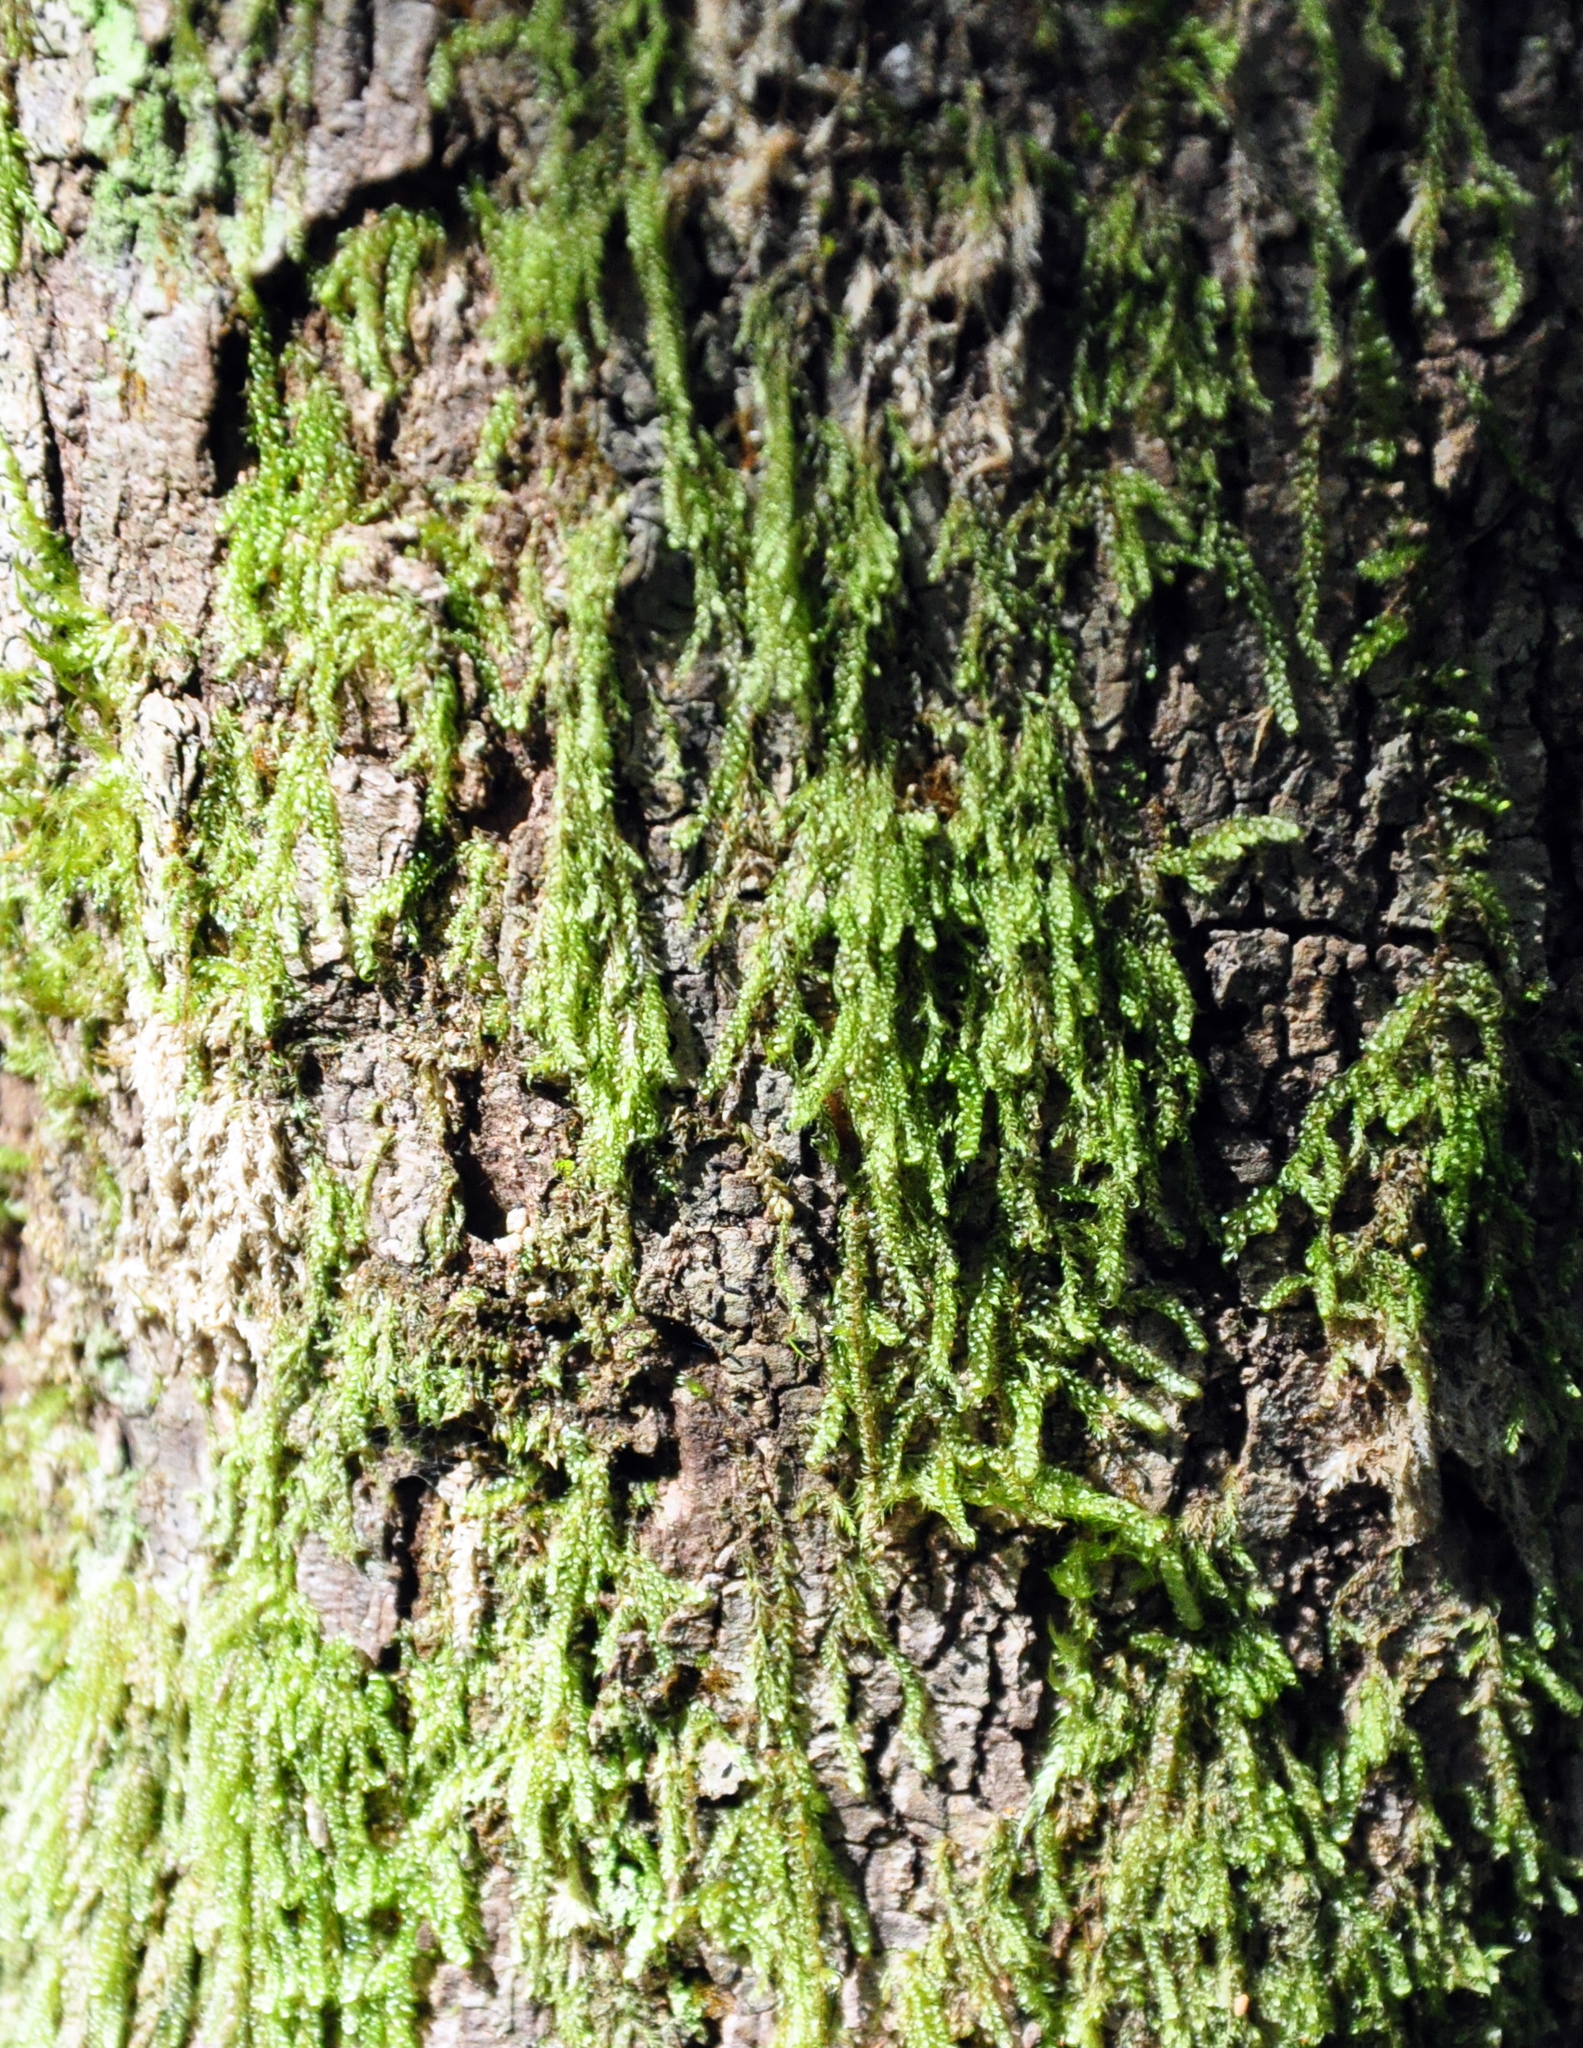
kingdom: Plantae
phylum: Bryophyta
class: Bryopsida
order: Hypnales
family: Hypnaceae
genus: Hypnum
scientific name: Hypnum cupressiforme
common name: Cypress-leaved plait-moss
